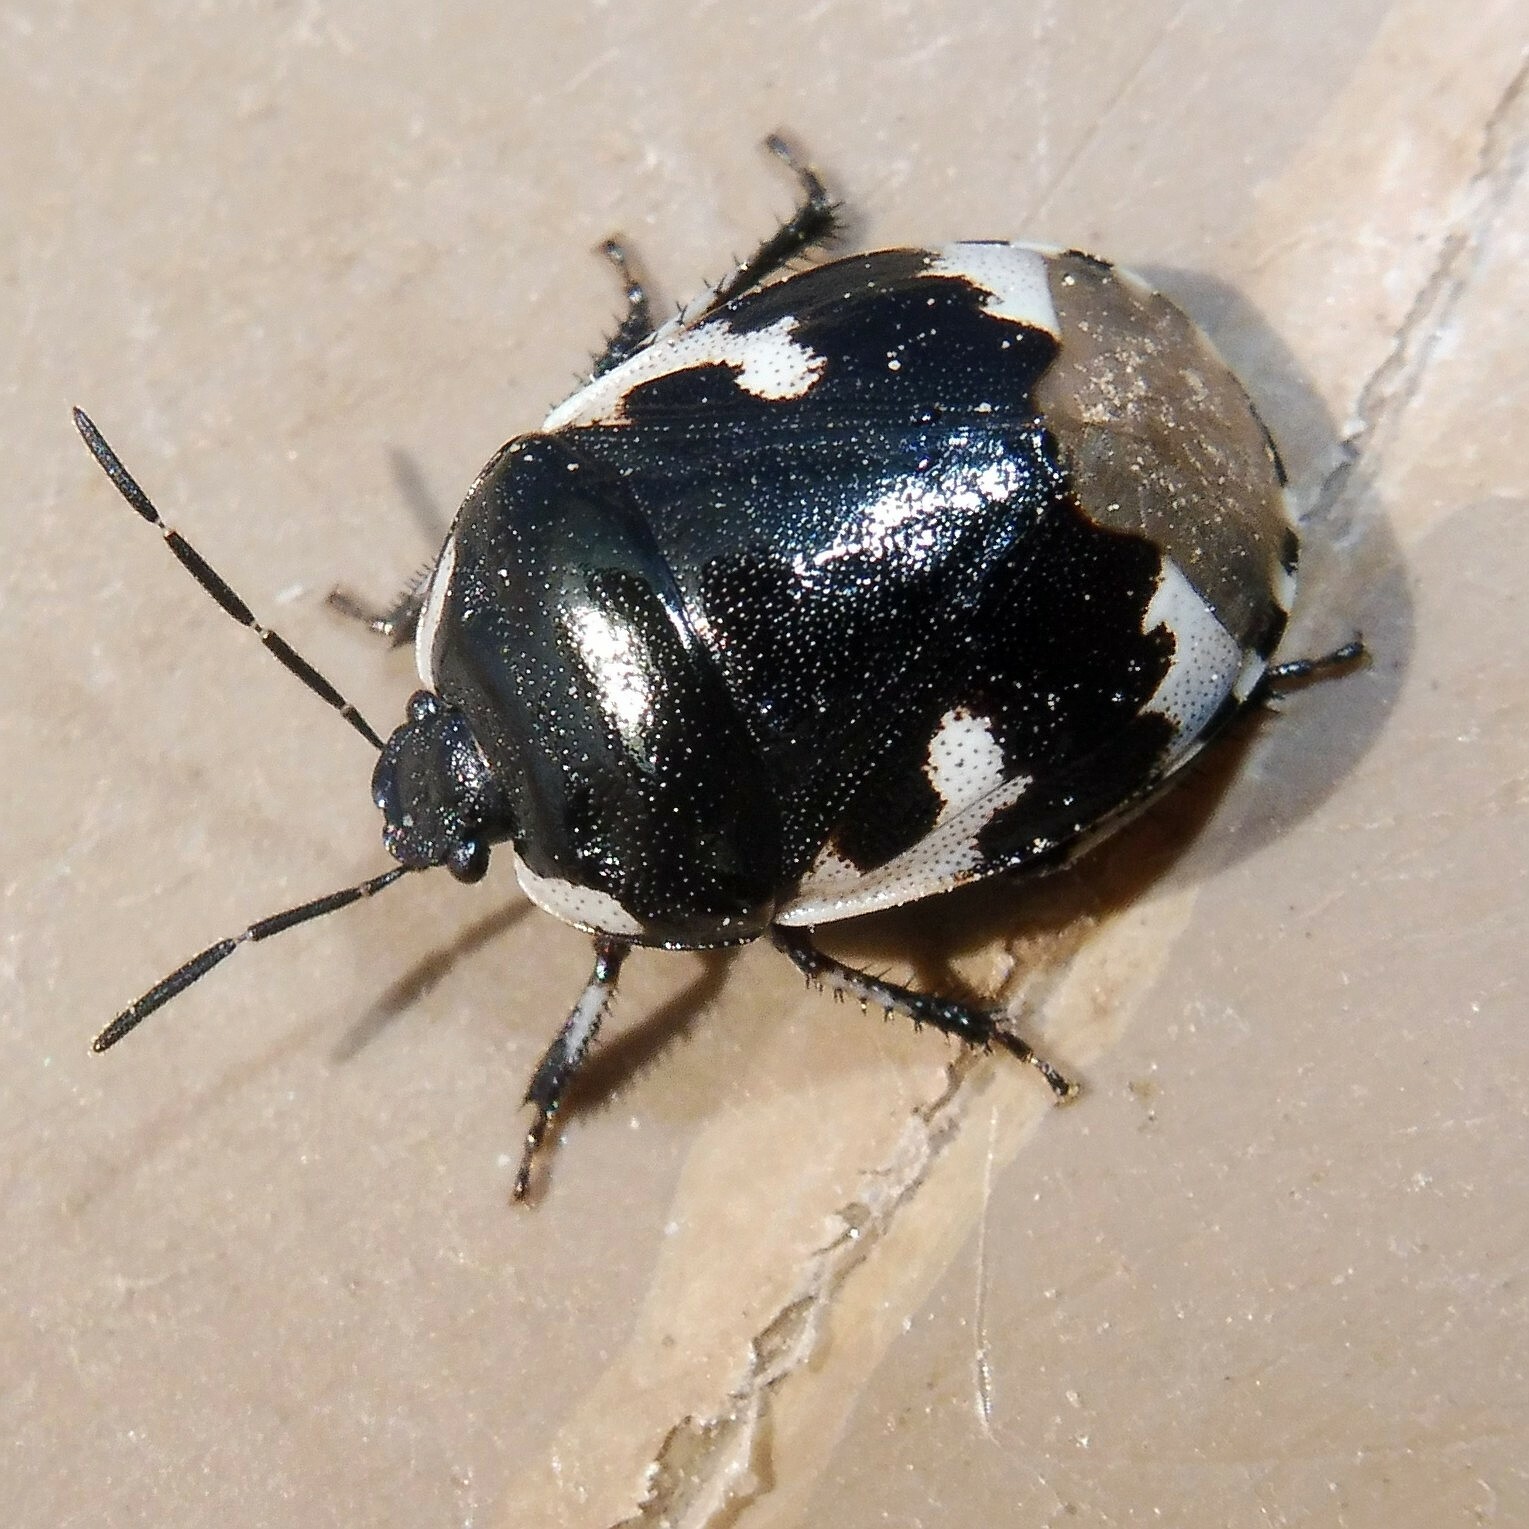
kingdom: Animalia
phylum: Arthropoda
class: Insecta
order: Hemiptera
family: Cydnidae
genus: Tritomegas
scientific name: Tritomegas bicolor
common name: Pied shieldbug
